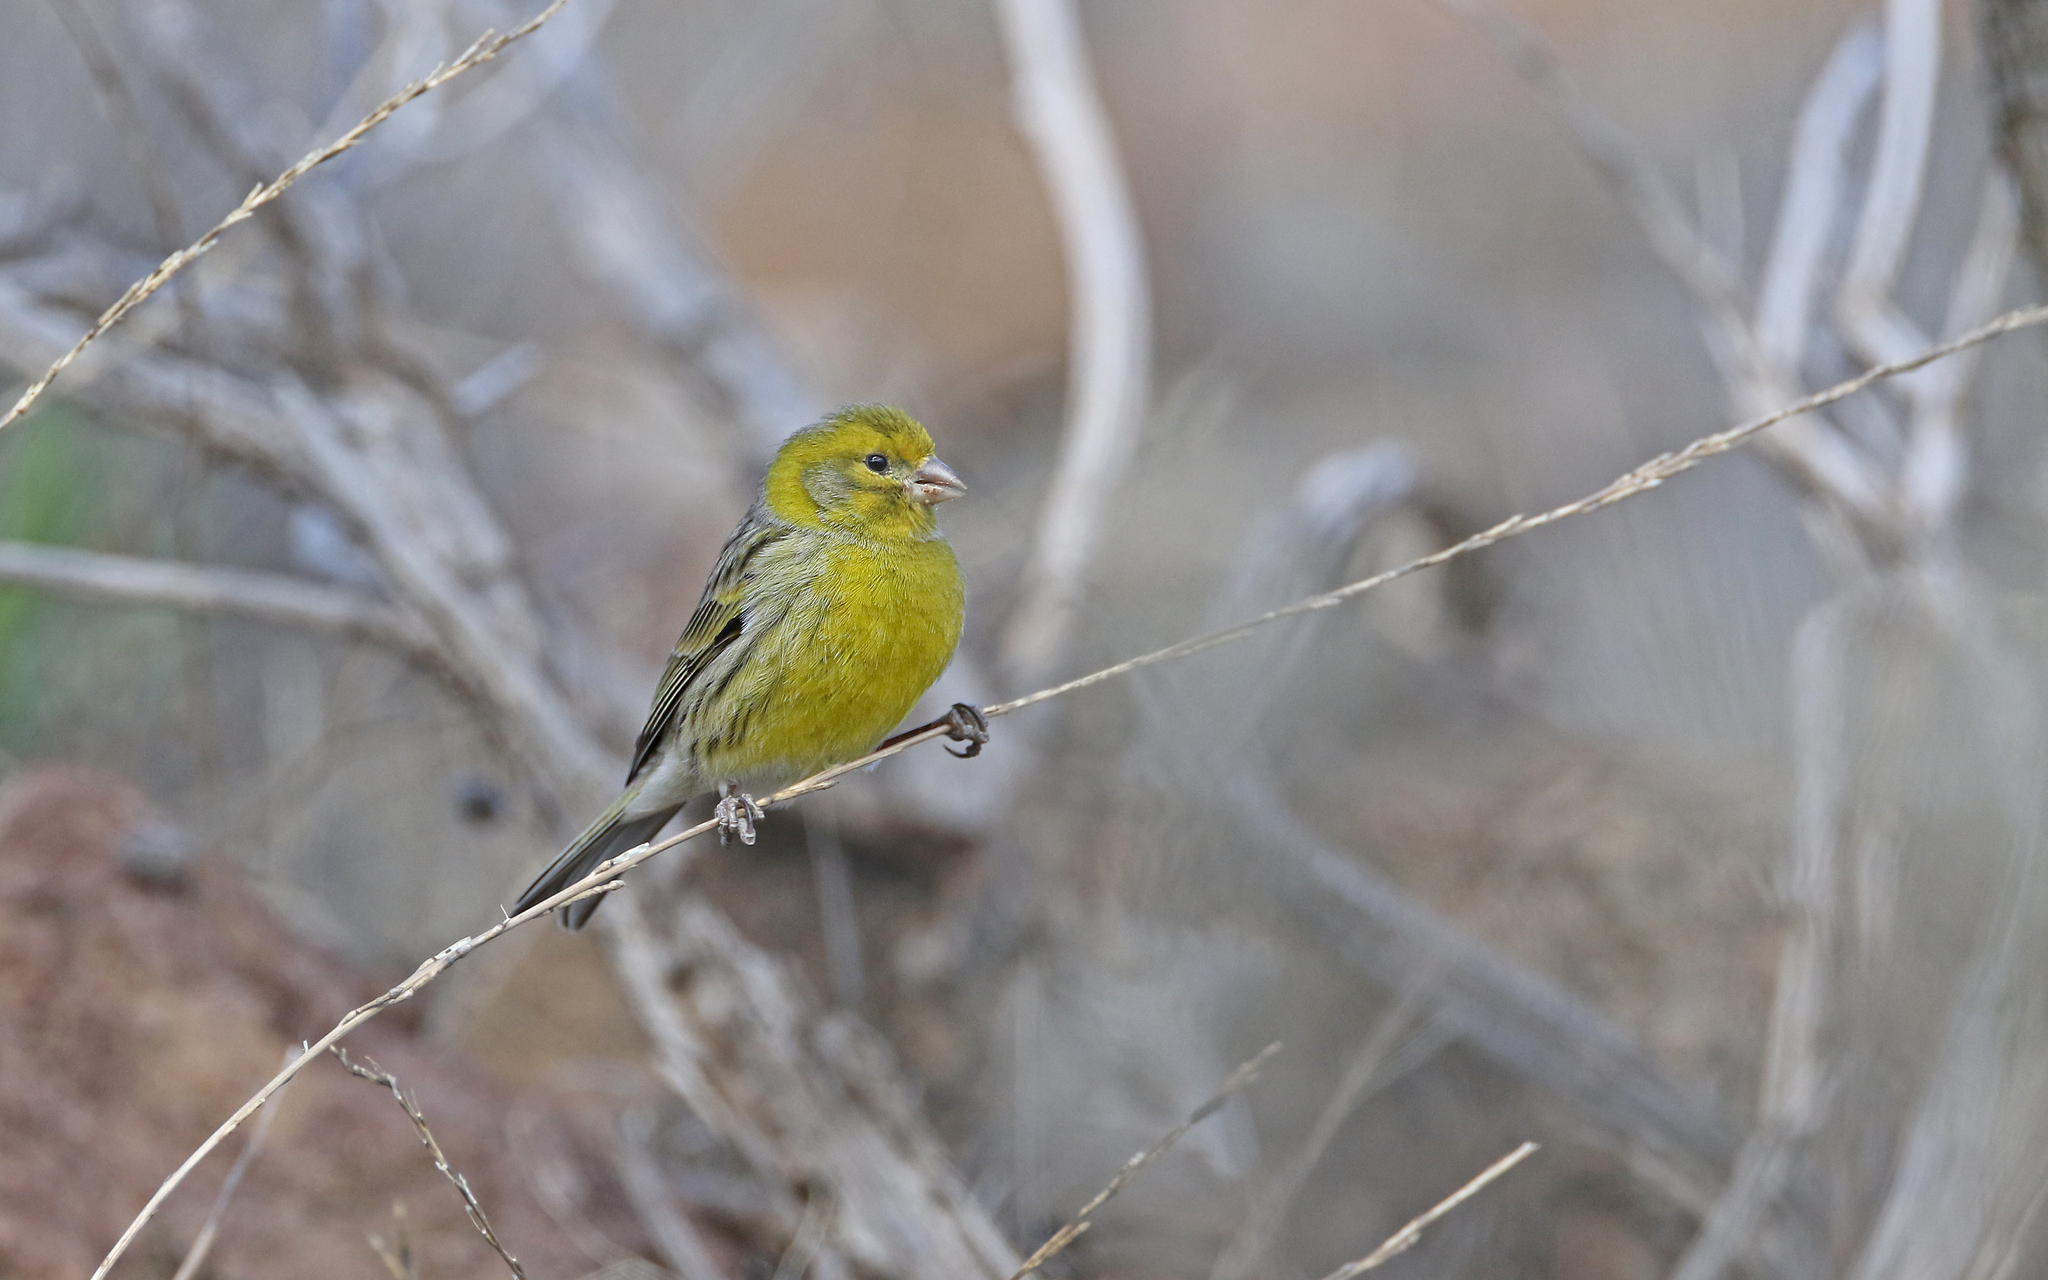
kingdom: Animalia
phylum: Chordata
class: Aves
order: Passeriformes
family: Fringillidae
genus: Serinus
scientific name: Serinus canaria
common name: Atlantic canary
